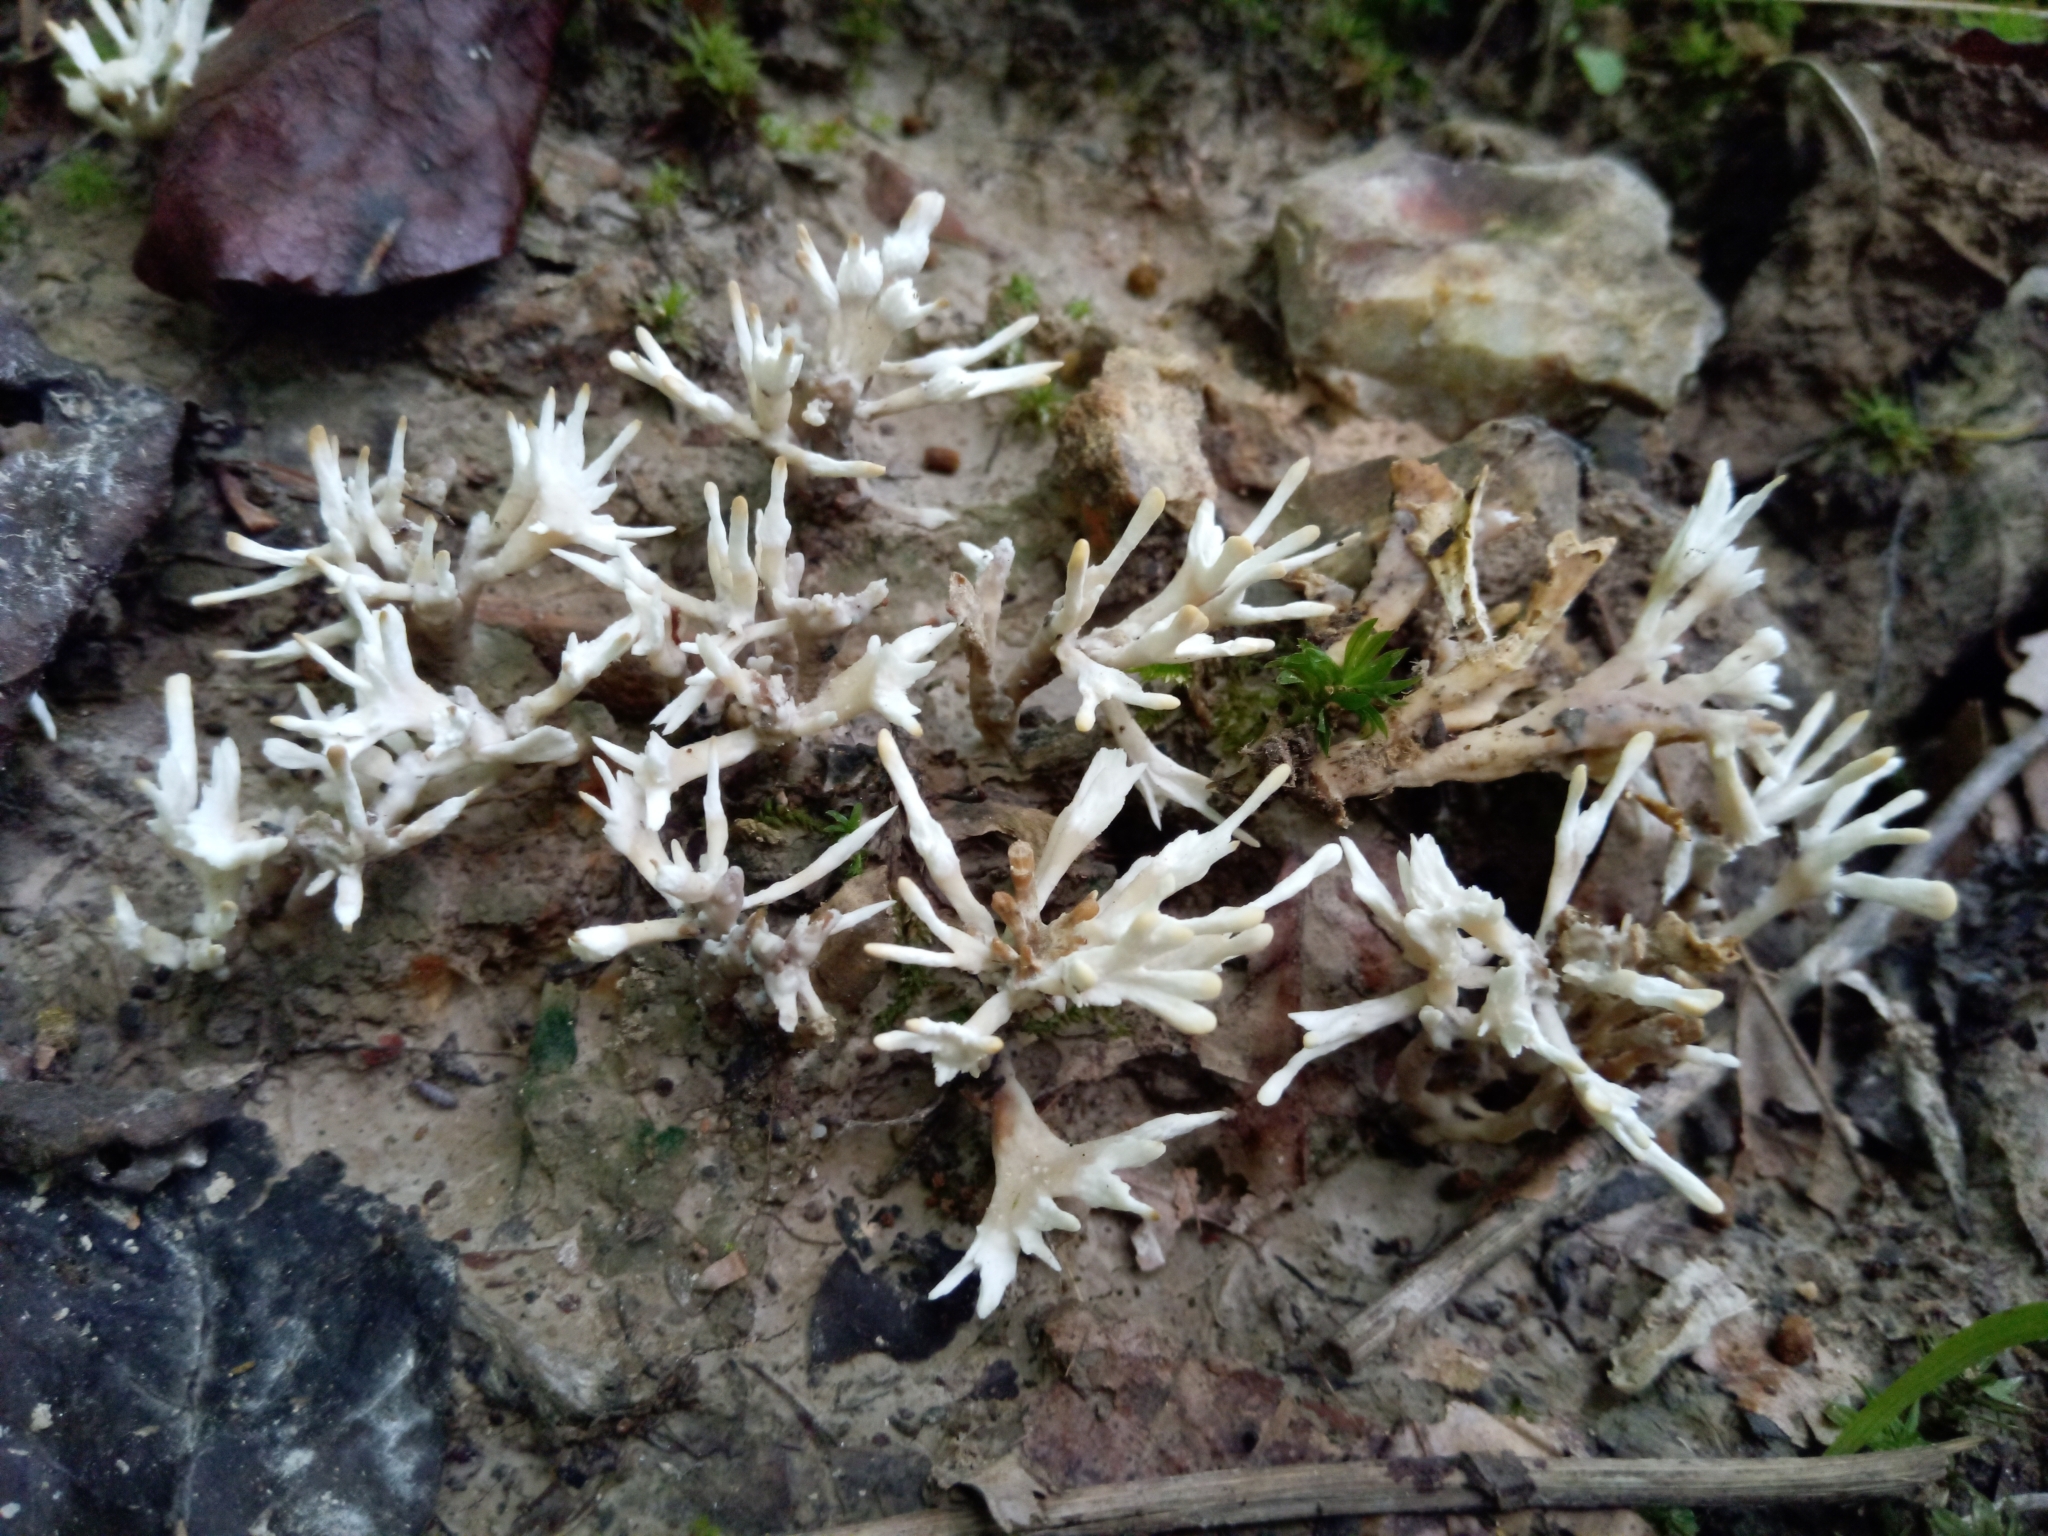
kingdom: Fungi
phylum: Basidiomycota
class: Agaricomycetes
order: Tremellodendropsidales
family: Tremellodendropsidaceae
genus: Tremellodendropsis
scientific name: Tremellodendropsis tuberosa
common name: Ashen coral
